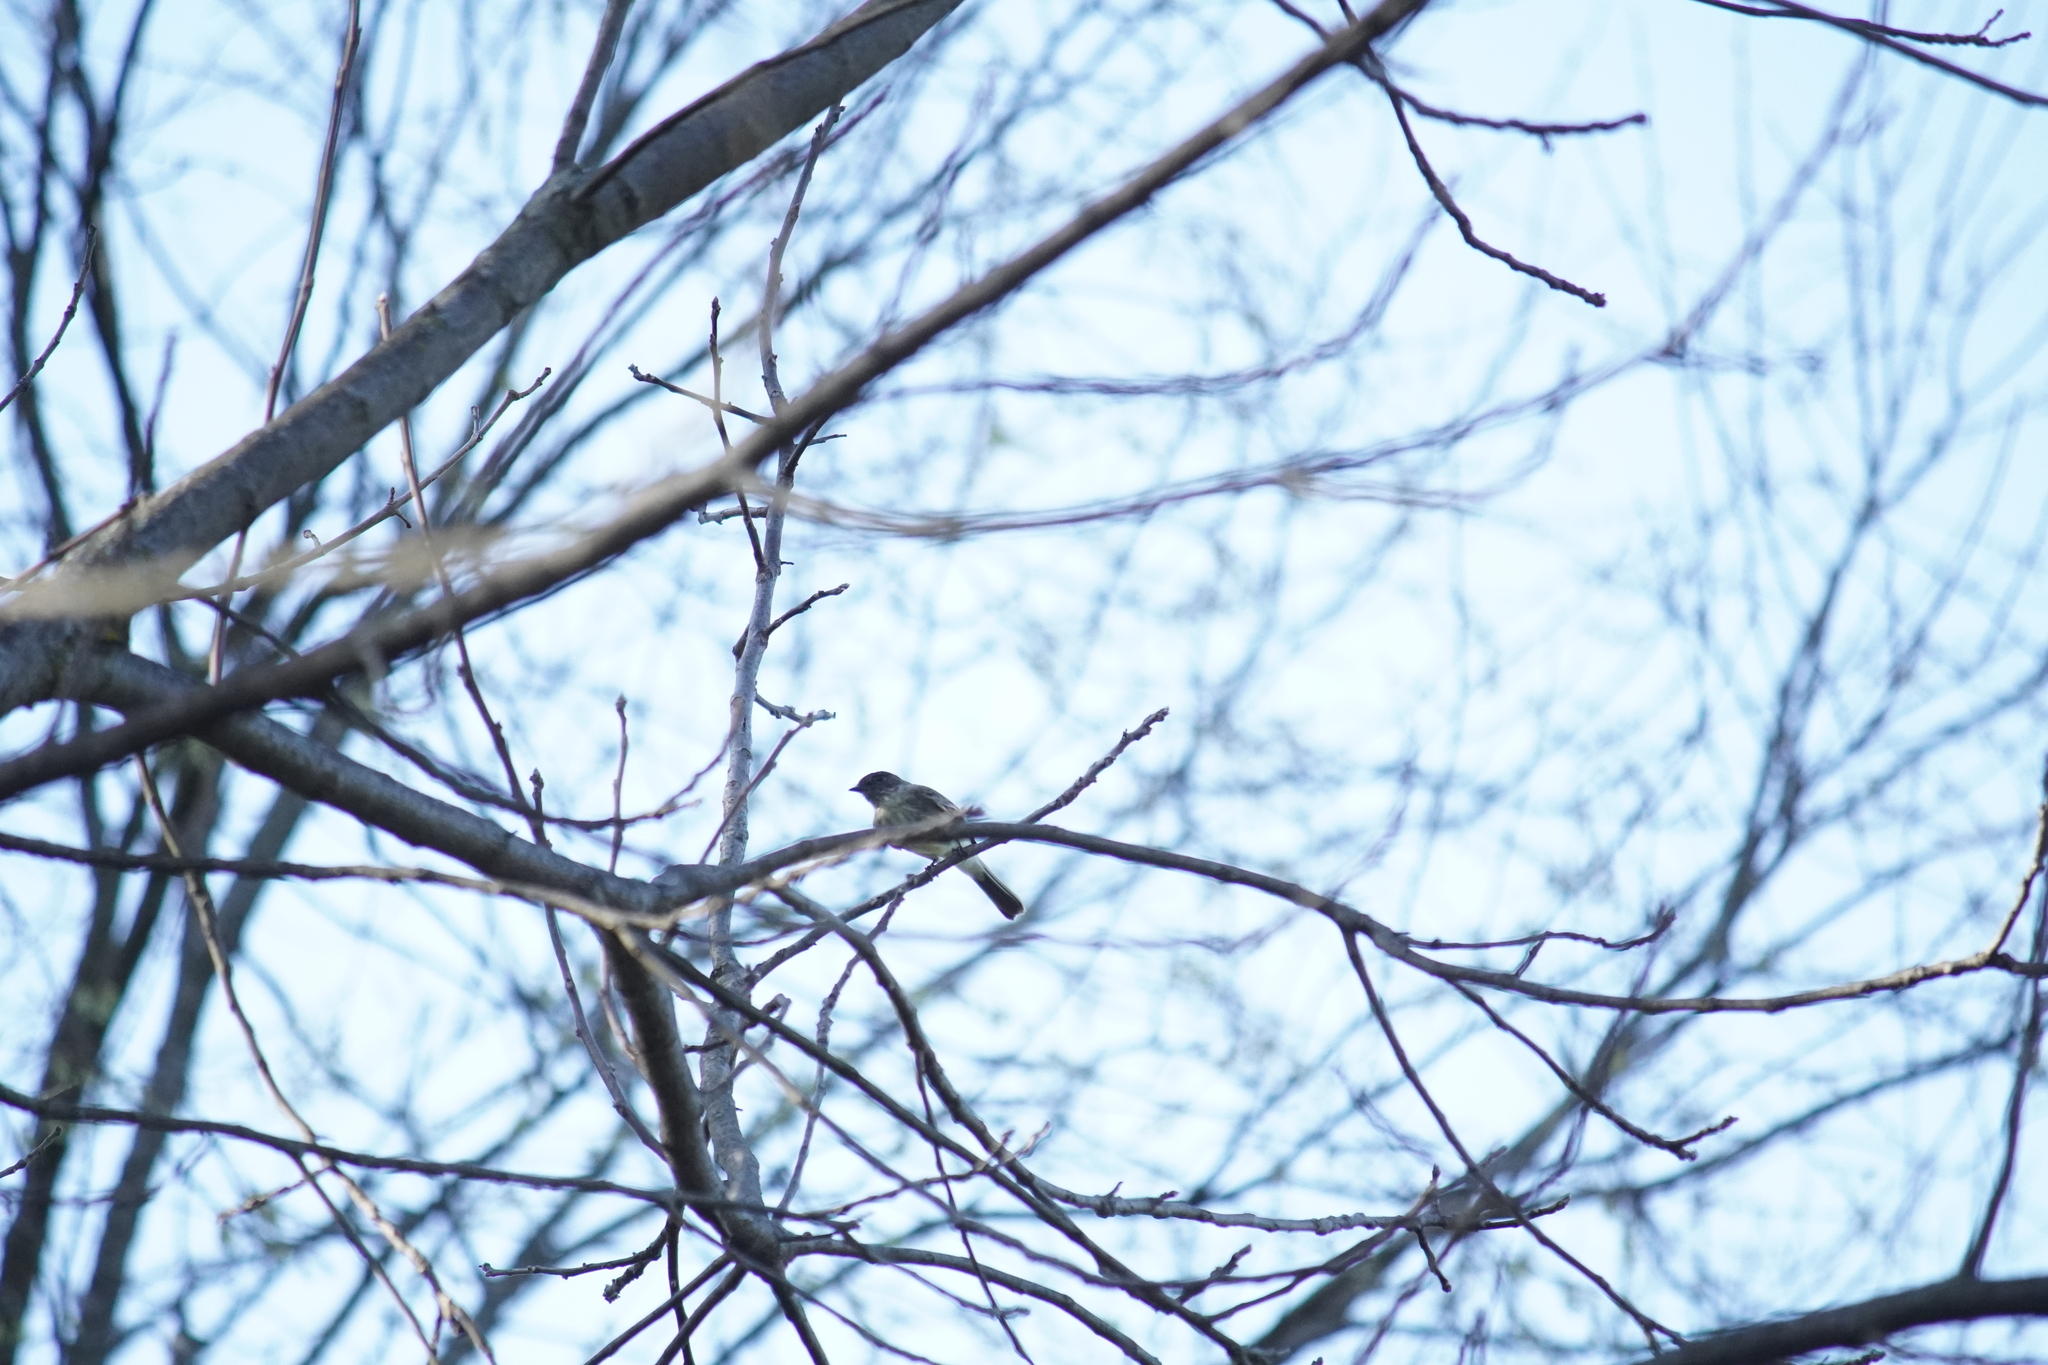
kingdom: Animalia
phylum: Chordata
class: Aves
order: Passeriformes
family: Tyrannidae
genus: Sayornis
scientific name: Sayornis phoebe
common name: Eastern phoebe
